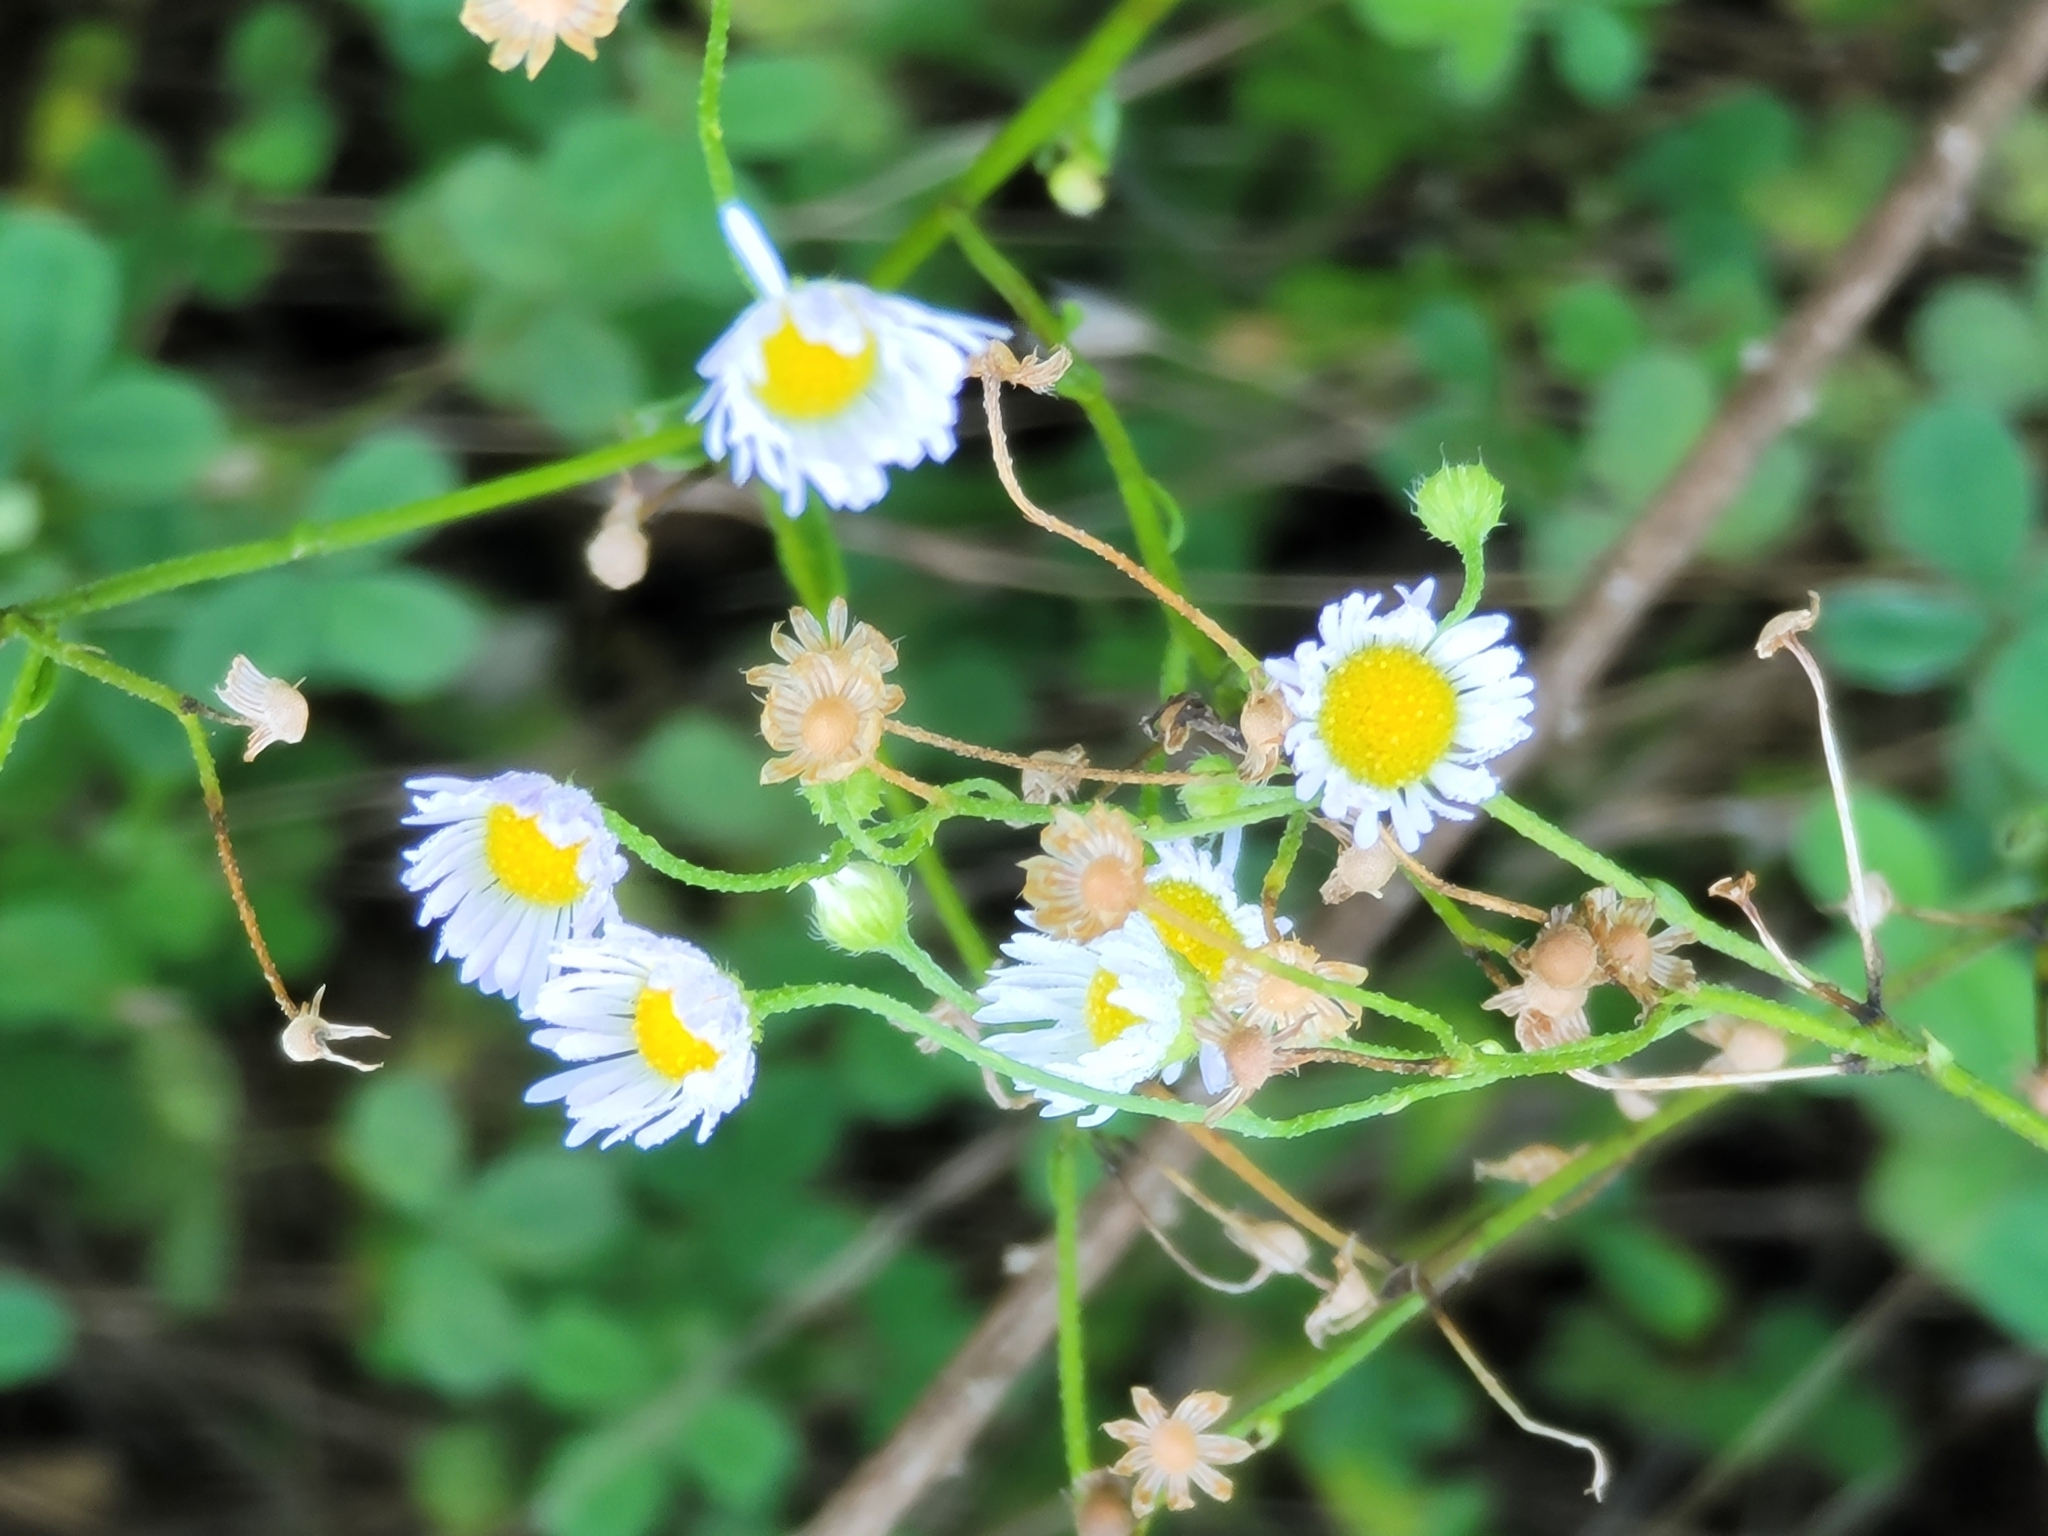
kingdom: Plantae
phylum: Tracheophyta
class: Magnoliopsida
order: Asterales
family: Asteraceae
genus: Erigeron
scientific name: Erigeron strigosus
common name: Common eastern fleabane
